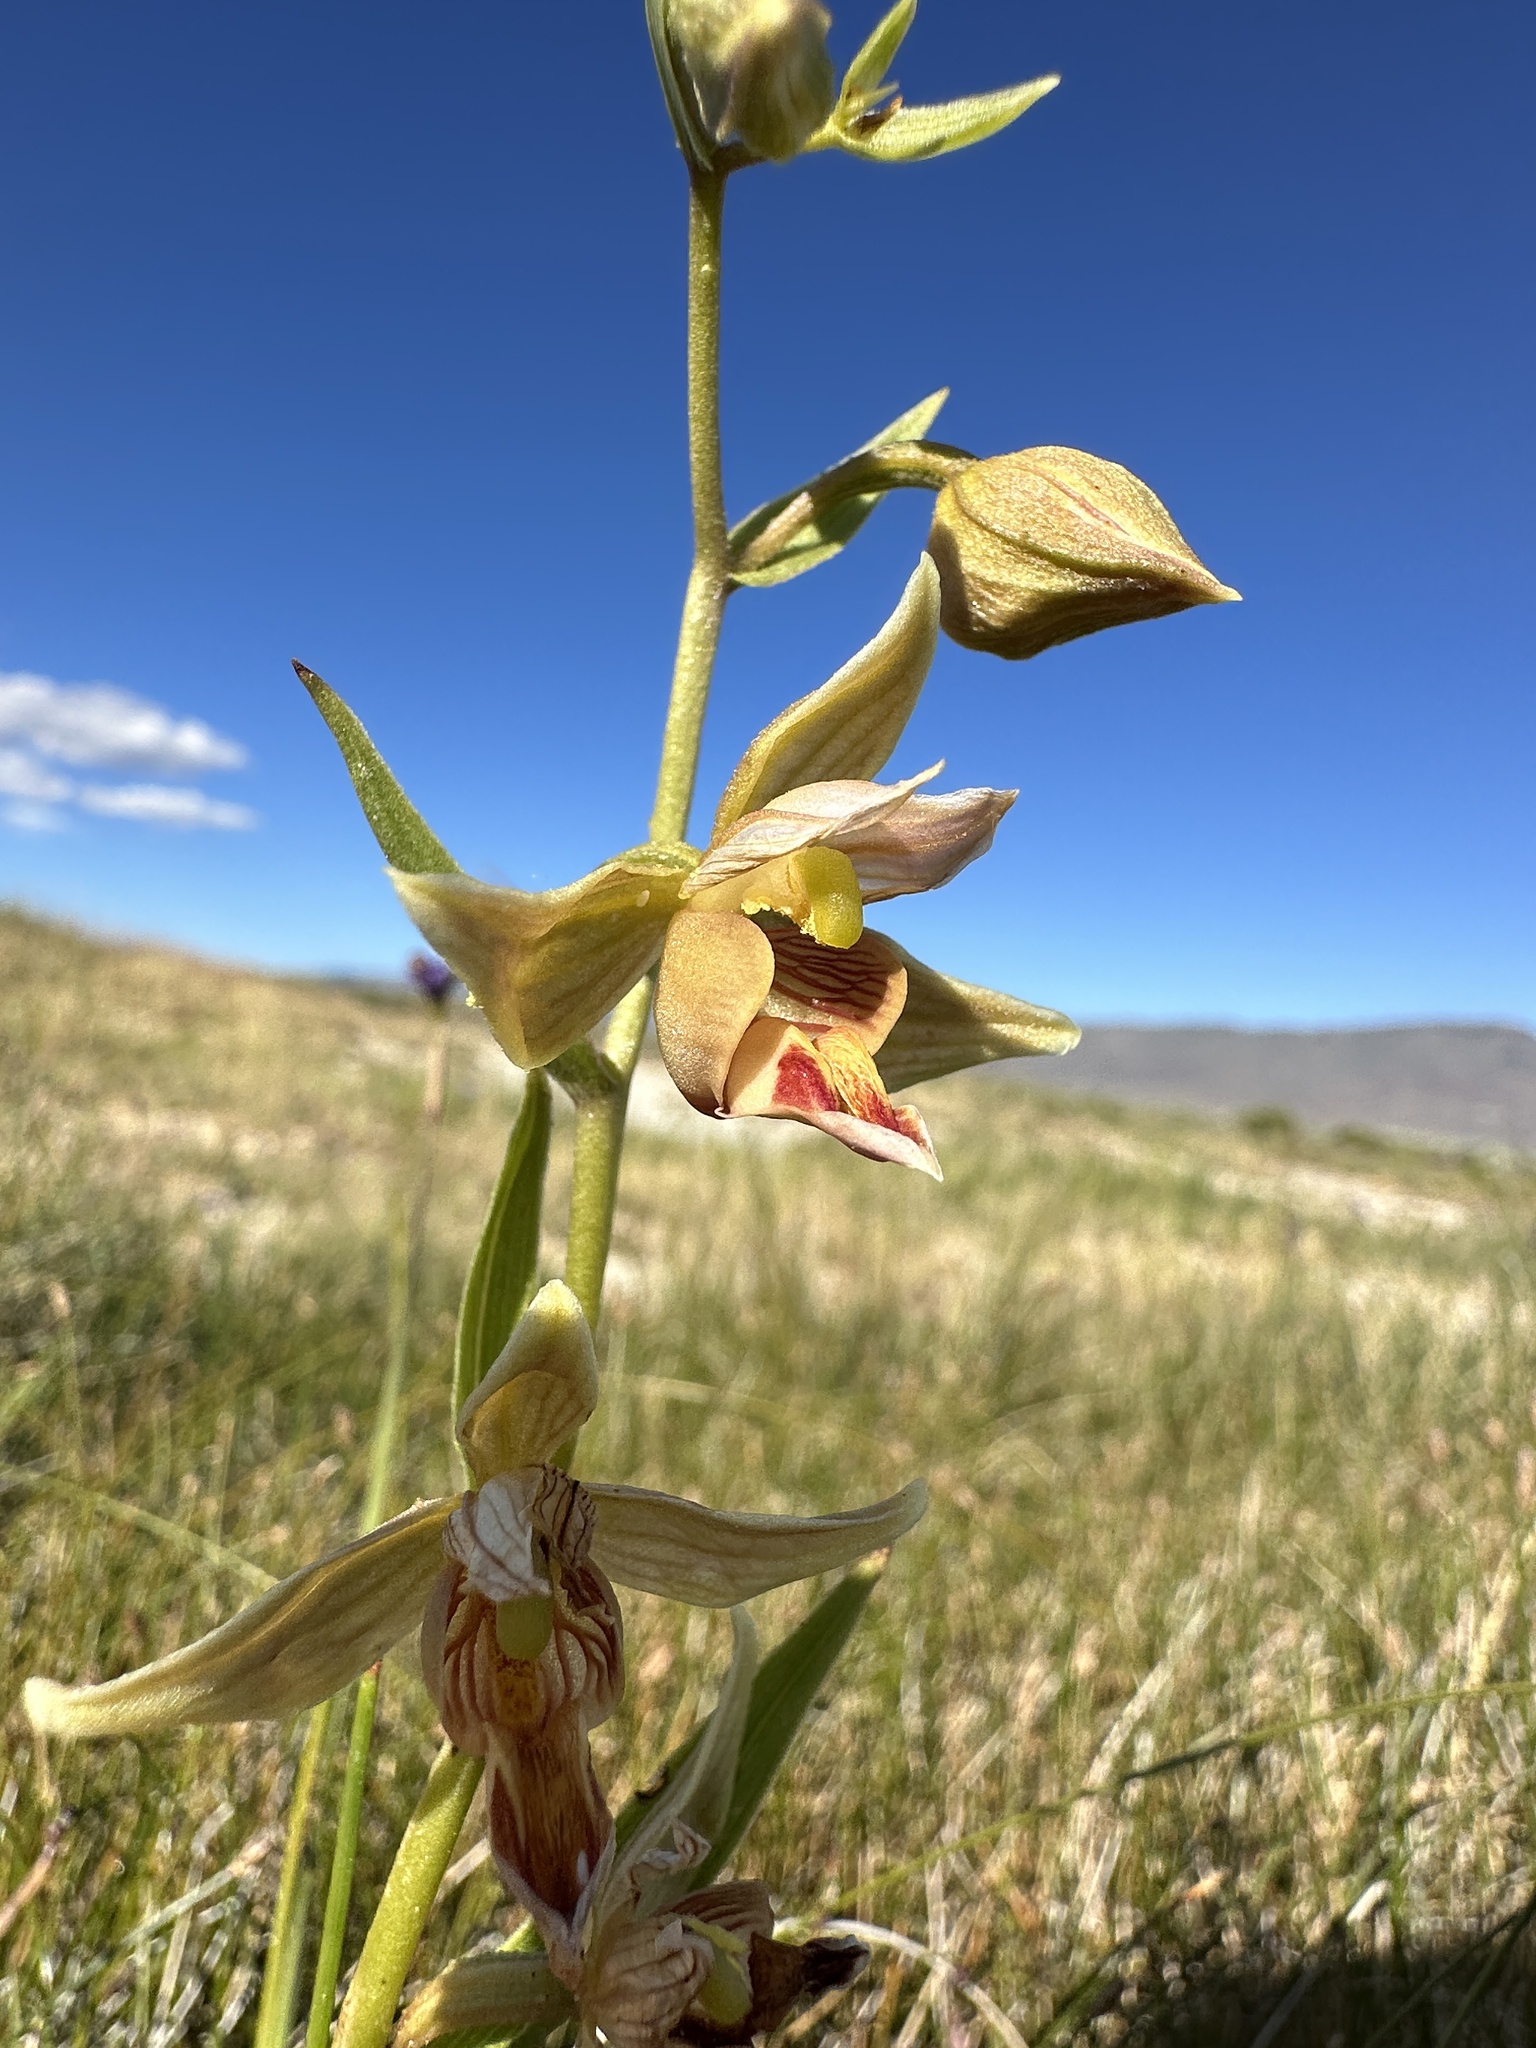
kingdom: Plantae
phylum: Tracheophyta
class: Liliopsida
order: Asparagales
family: Orchidaceae
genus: Epipactis
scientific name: Epipactis gigantea
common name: Chatterbox
